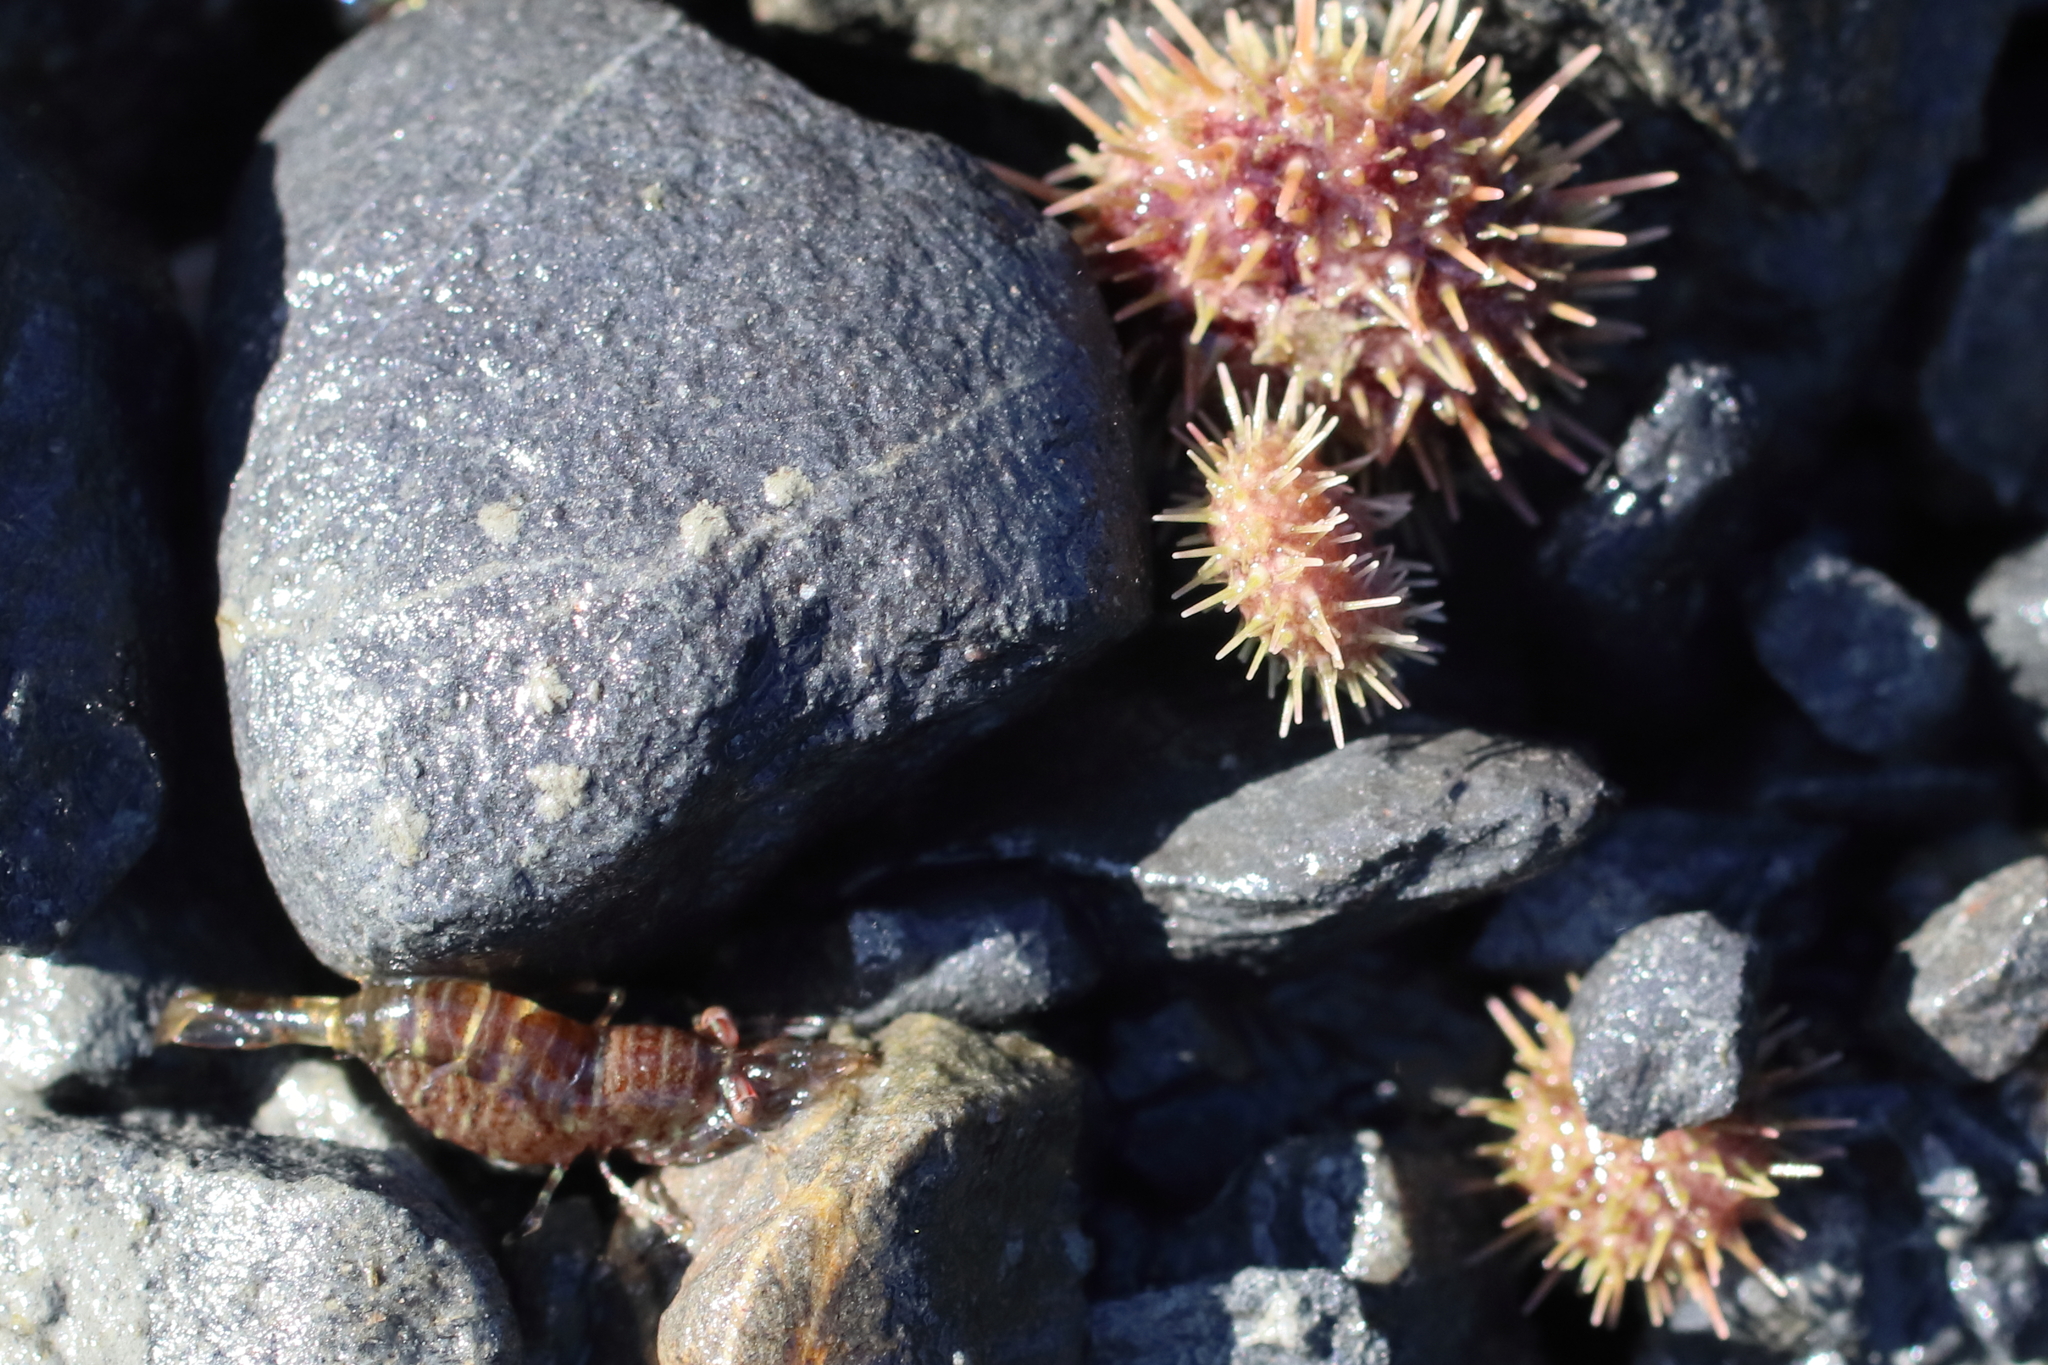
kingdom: Animalia
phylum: Echinodermata
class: Echinoidea
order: Camarodonta
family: Strongylocentrotidae
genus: Strongylocentrotus
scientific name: Strongylocentrotus droebachiensis
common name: Northern sea urchin
